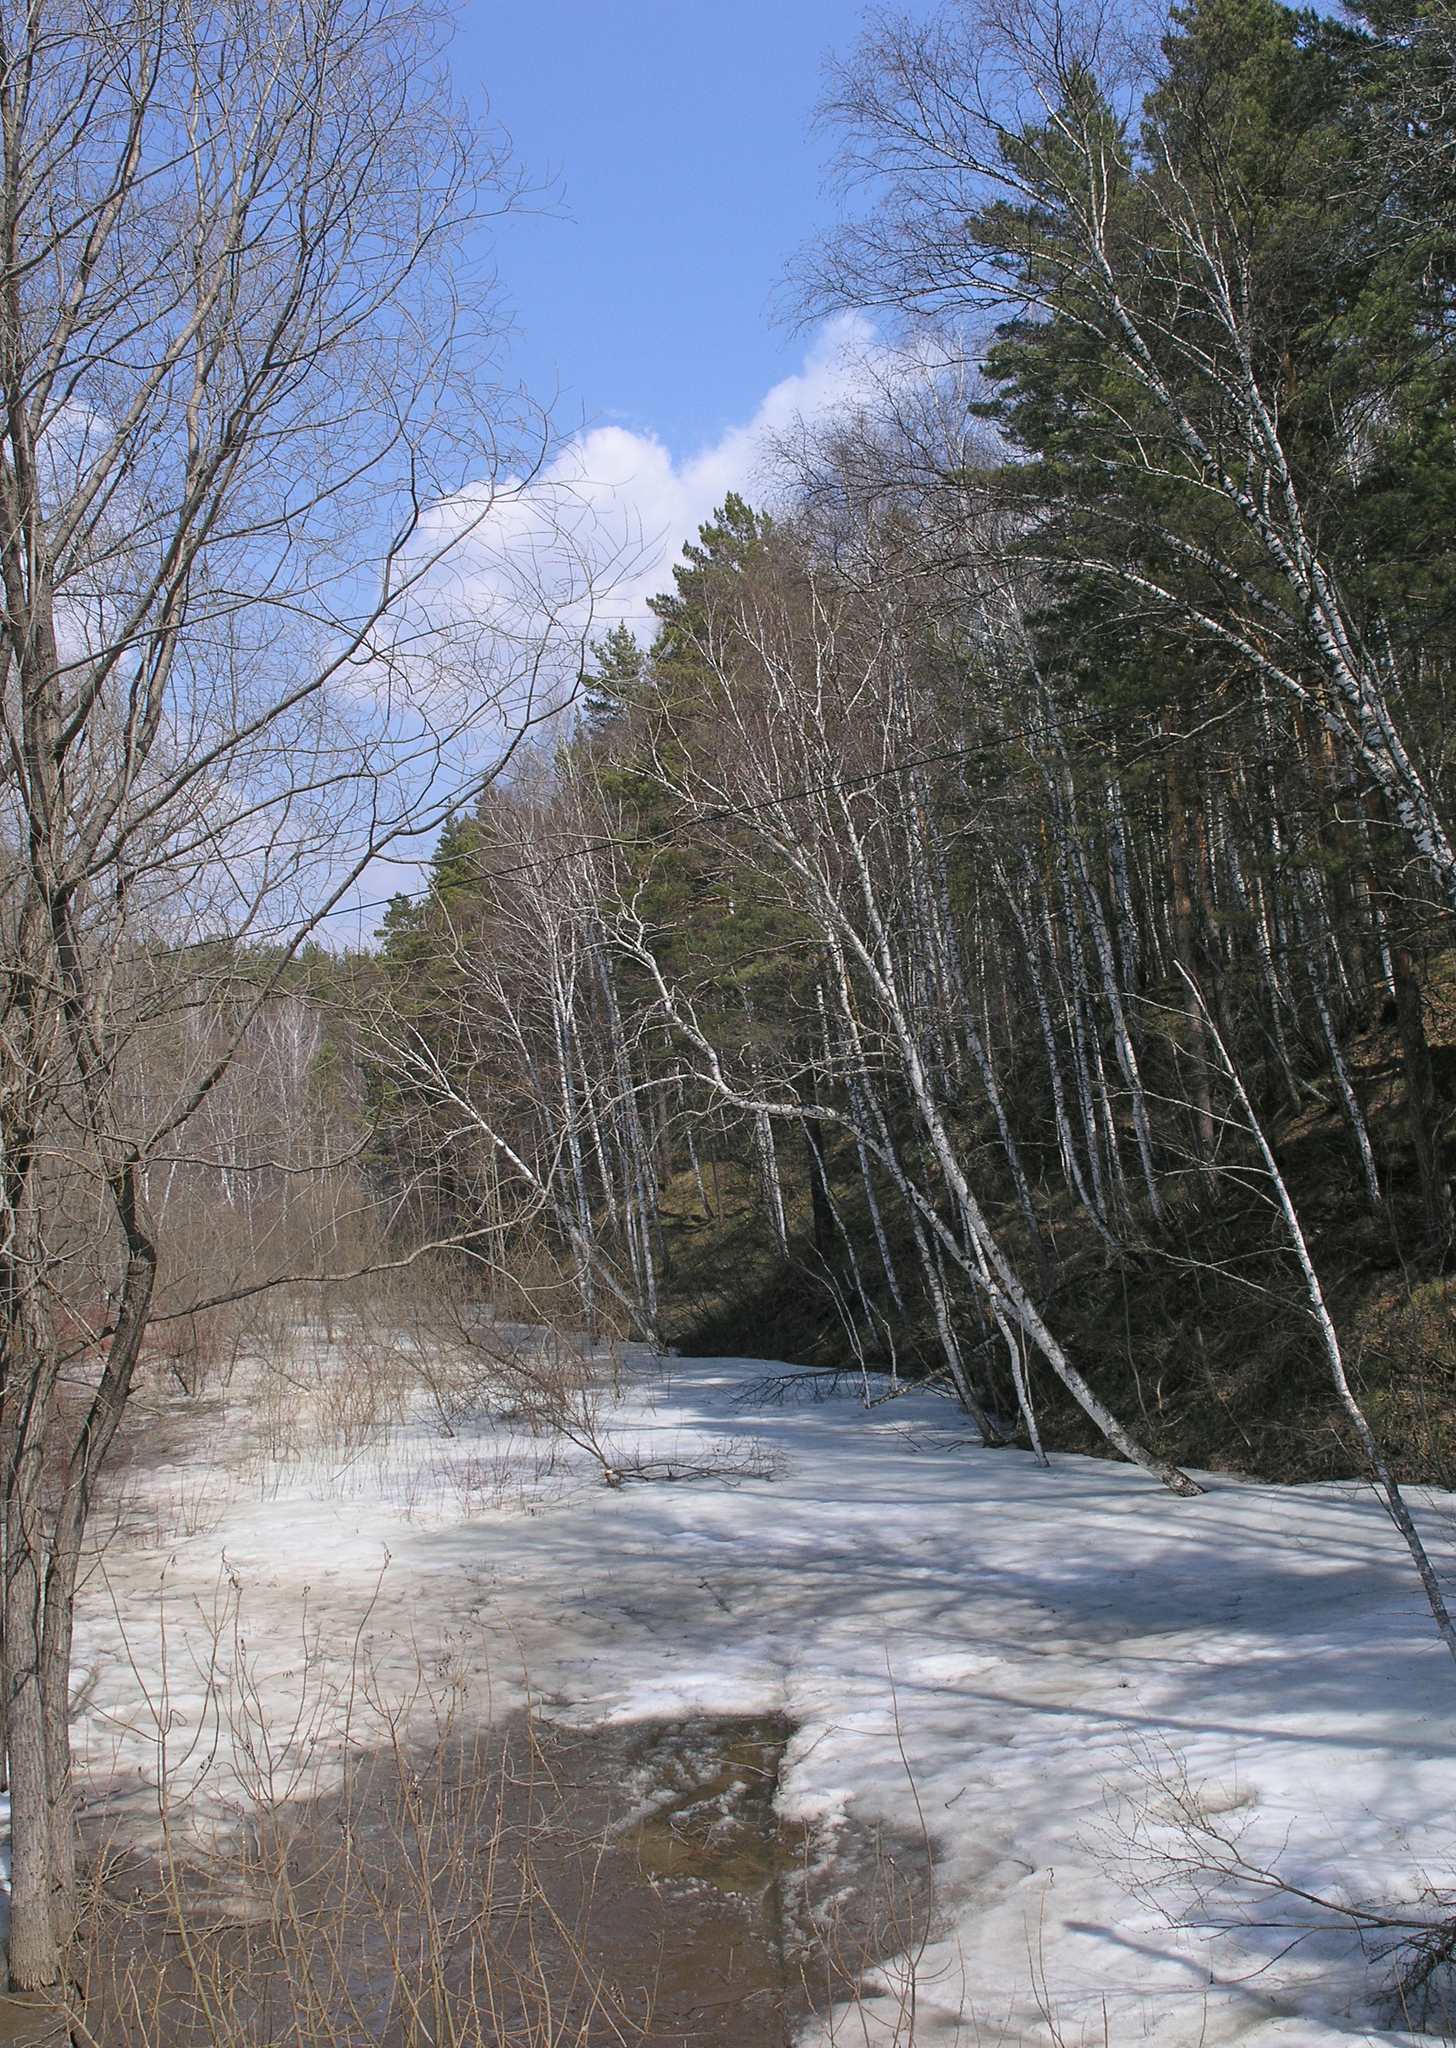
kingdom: Plantae
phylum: Tracheophyta
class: Magnoliopsida
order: Fagales
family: Betulaceae
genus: Betula
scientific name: Betula pendula
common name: Silver birch
